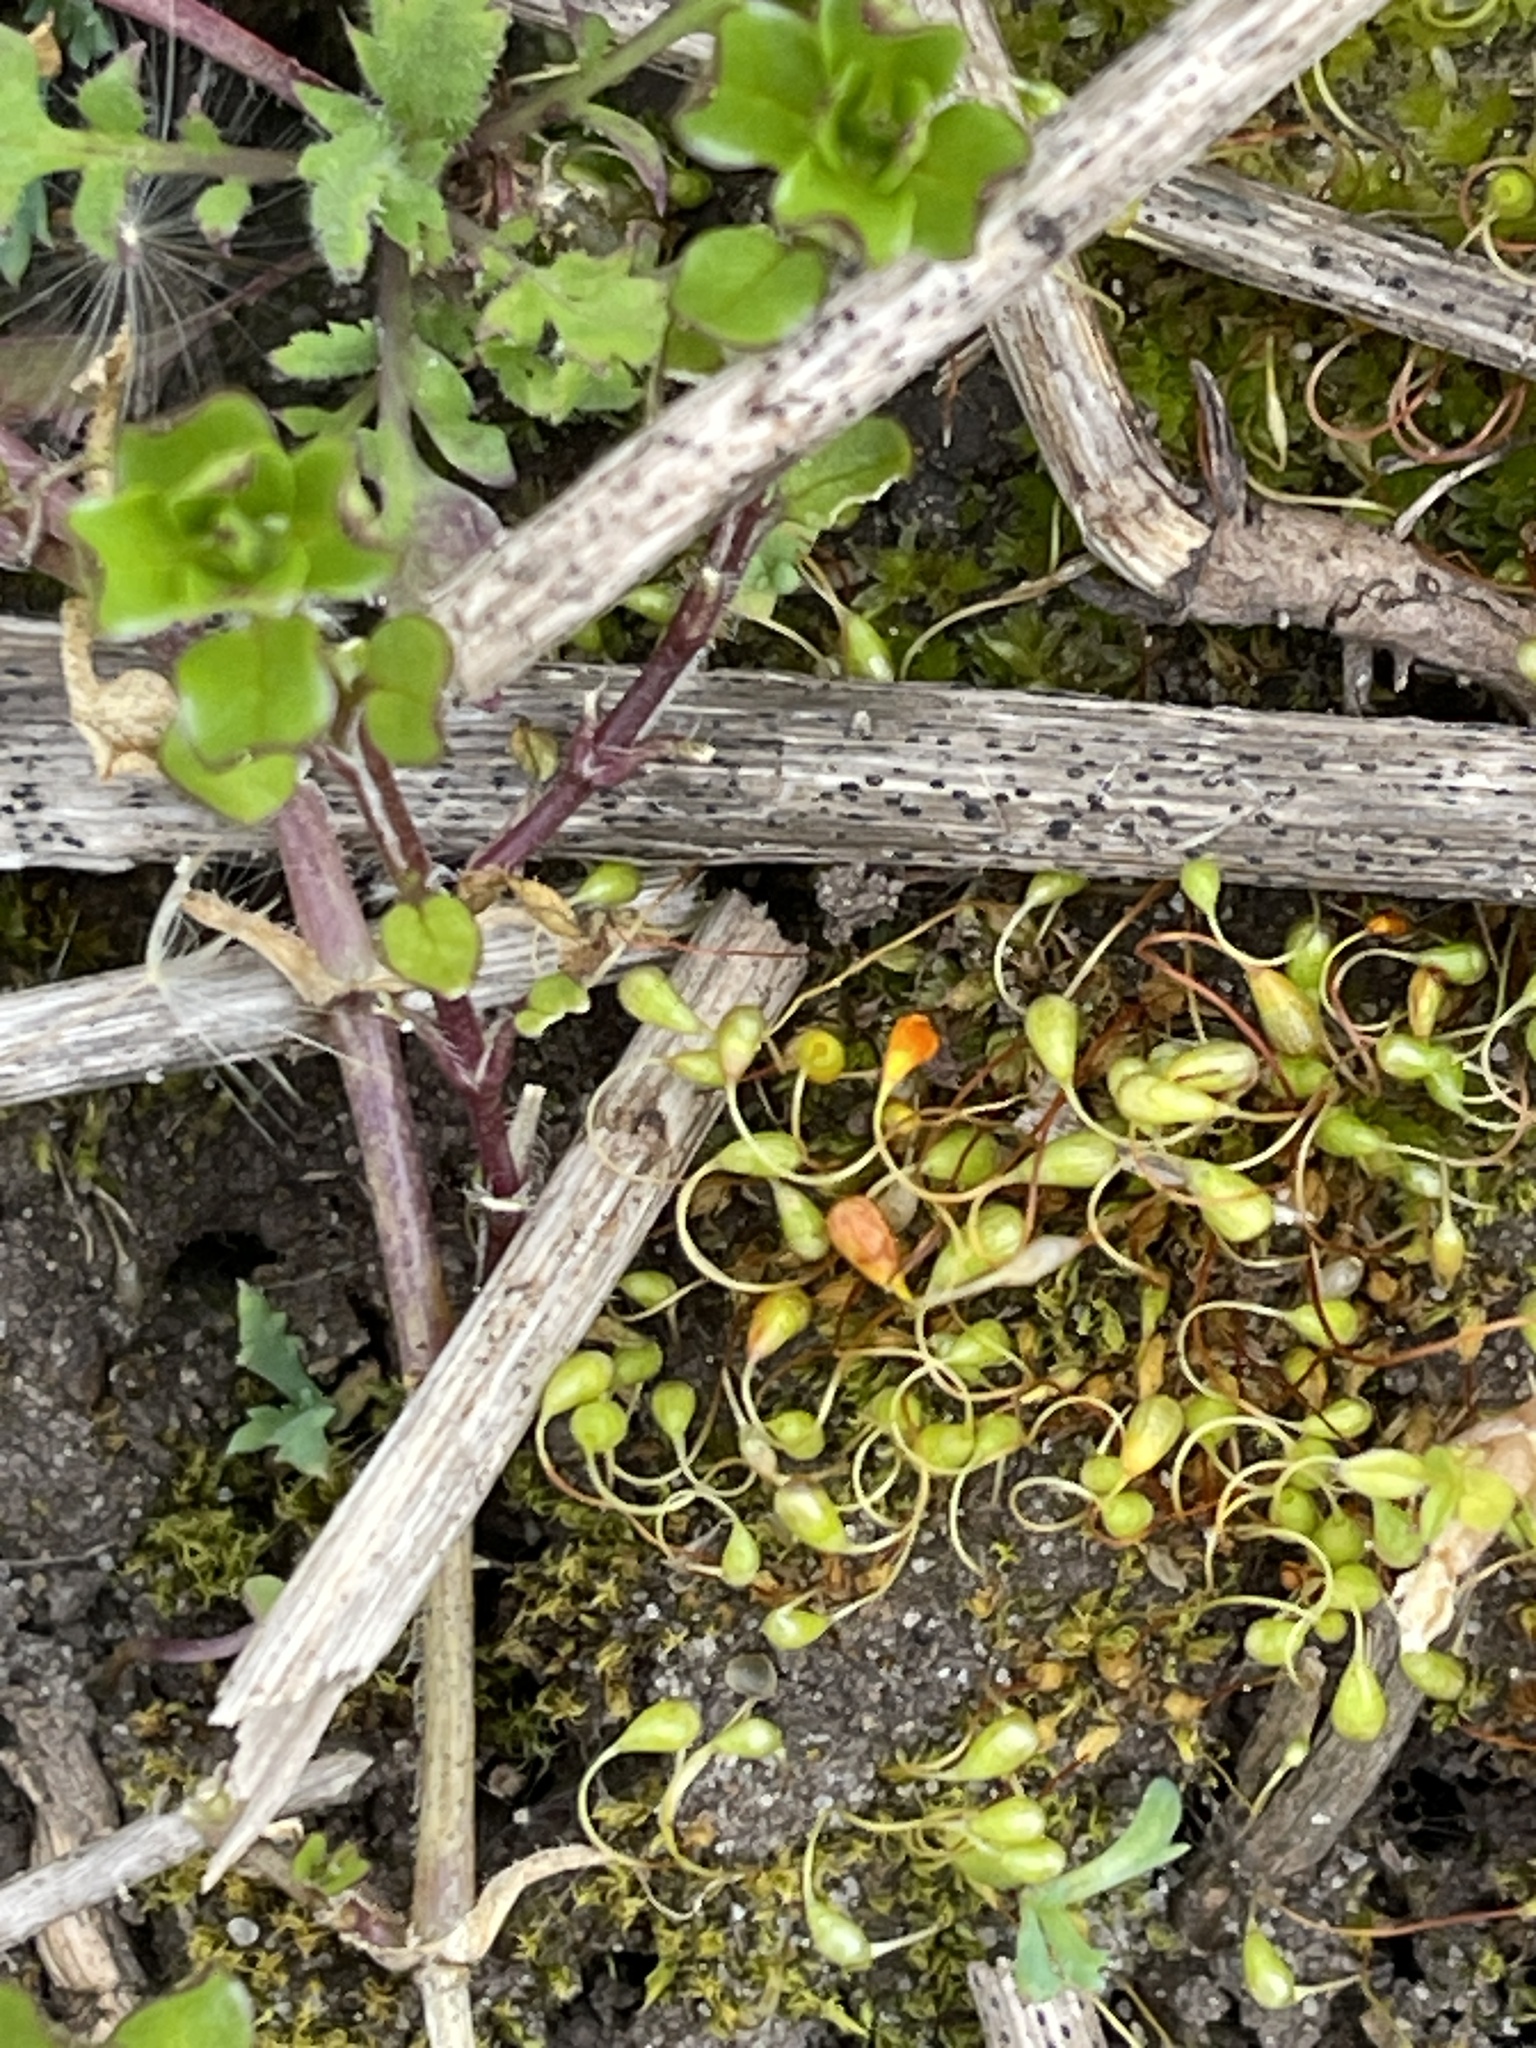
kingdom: Plantae
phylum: Bryophyta
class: Bryopsida
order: Funariales
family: Funariaceae
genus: Funaria
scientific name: Funaria hygrometrica
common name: Common cord moss
